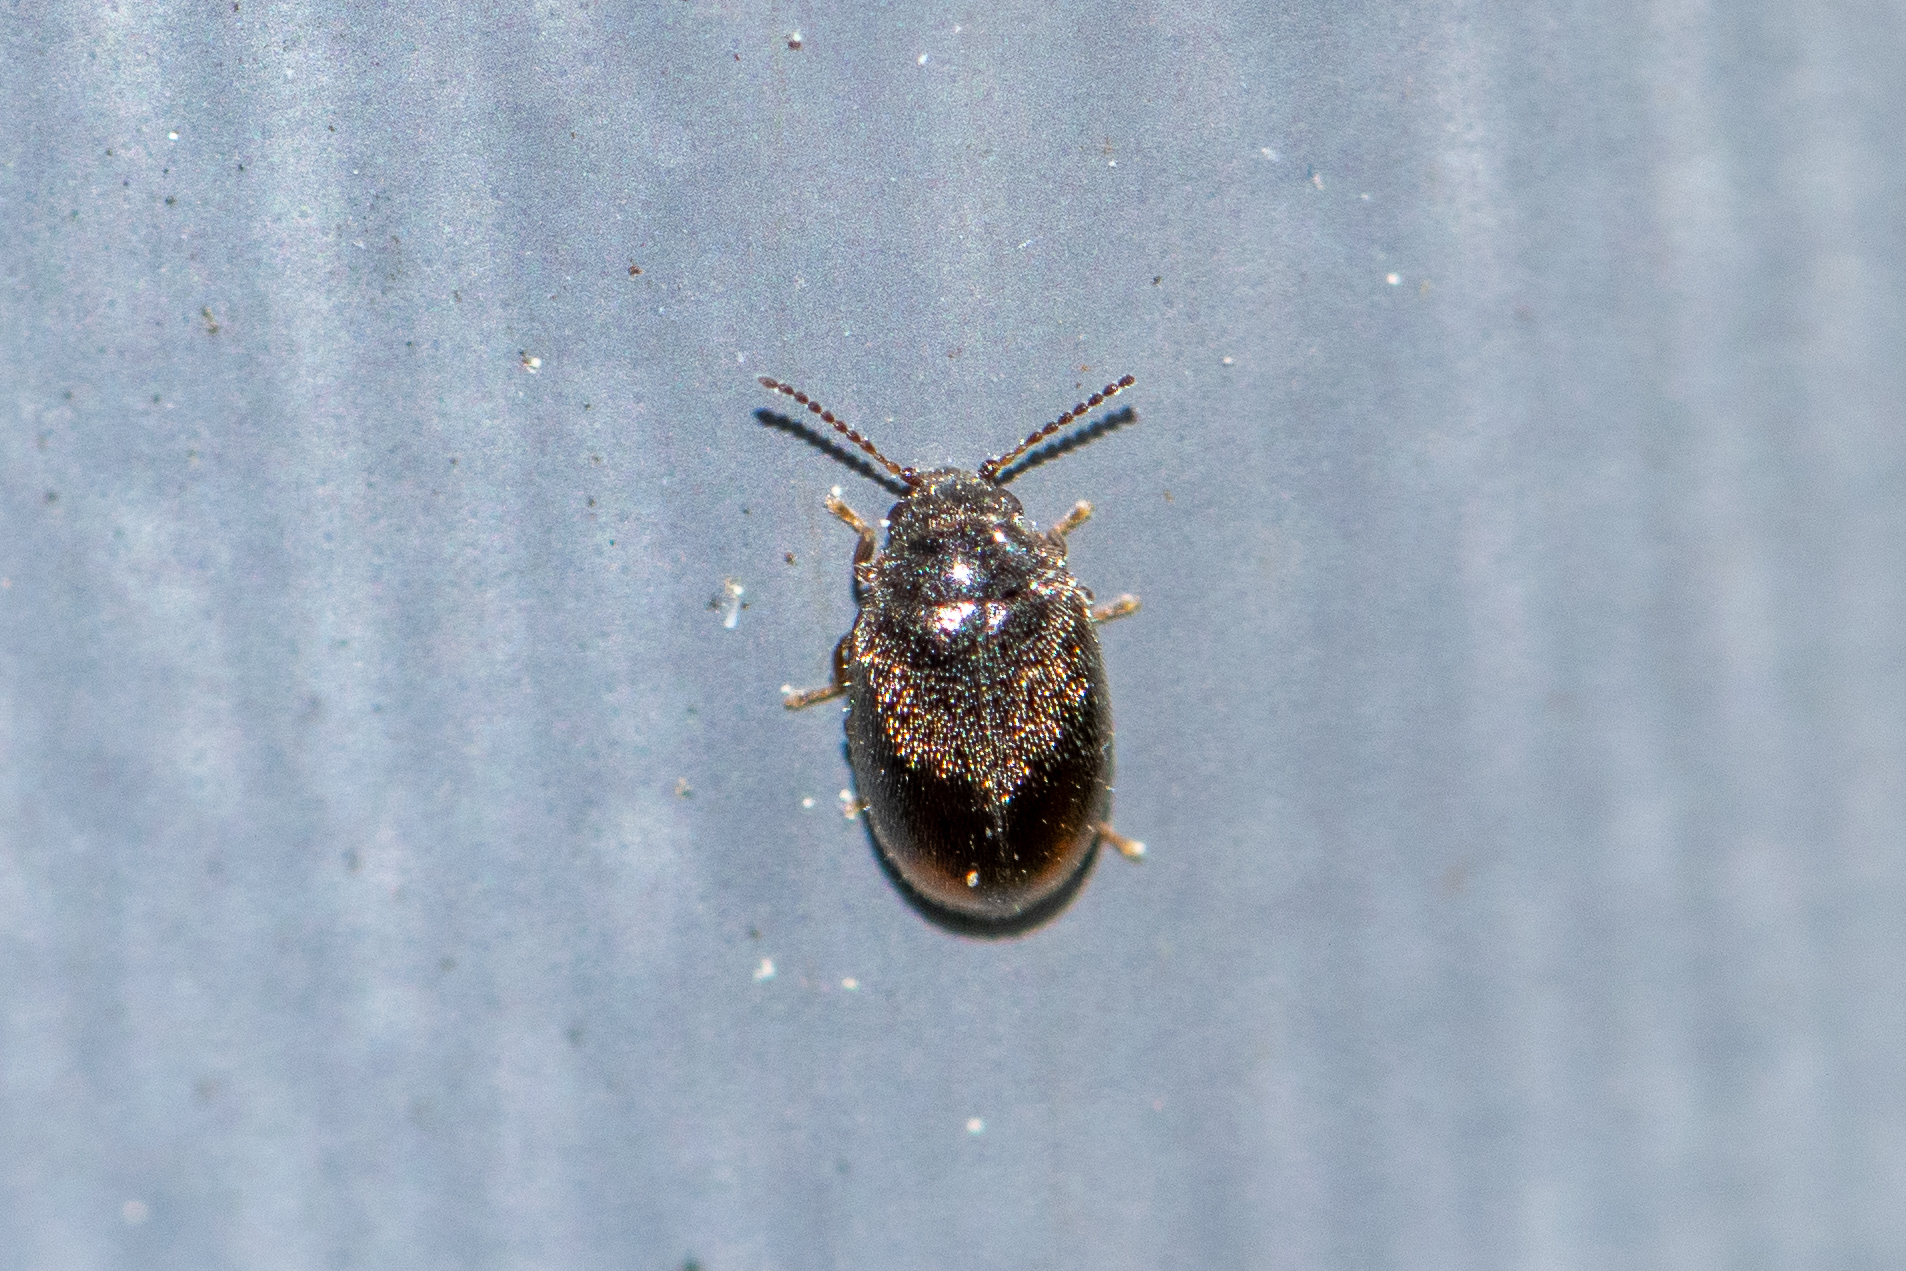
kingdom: Animalia
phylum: Arthropoda
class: Insecta
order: Coleoptera
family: Scirtidae
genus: Cyphon
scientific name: Cyphon padi
